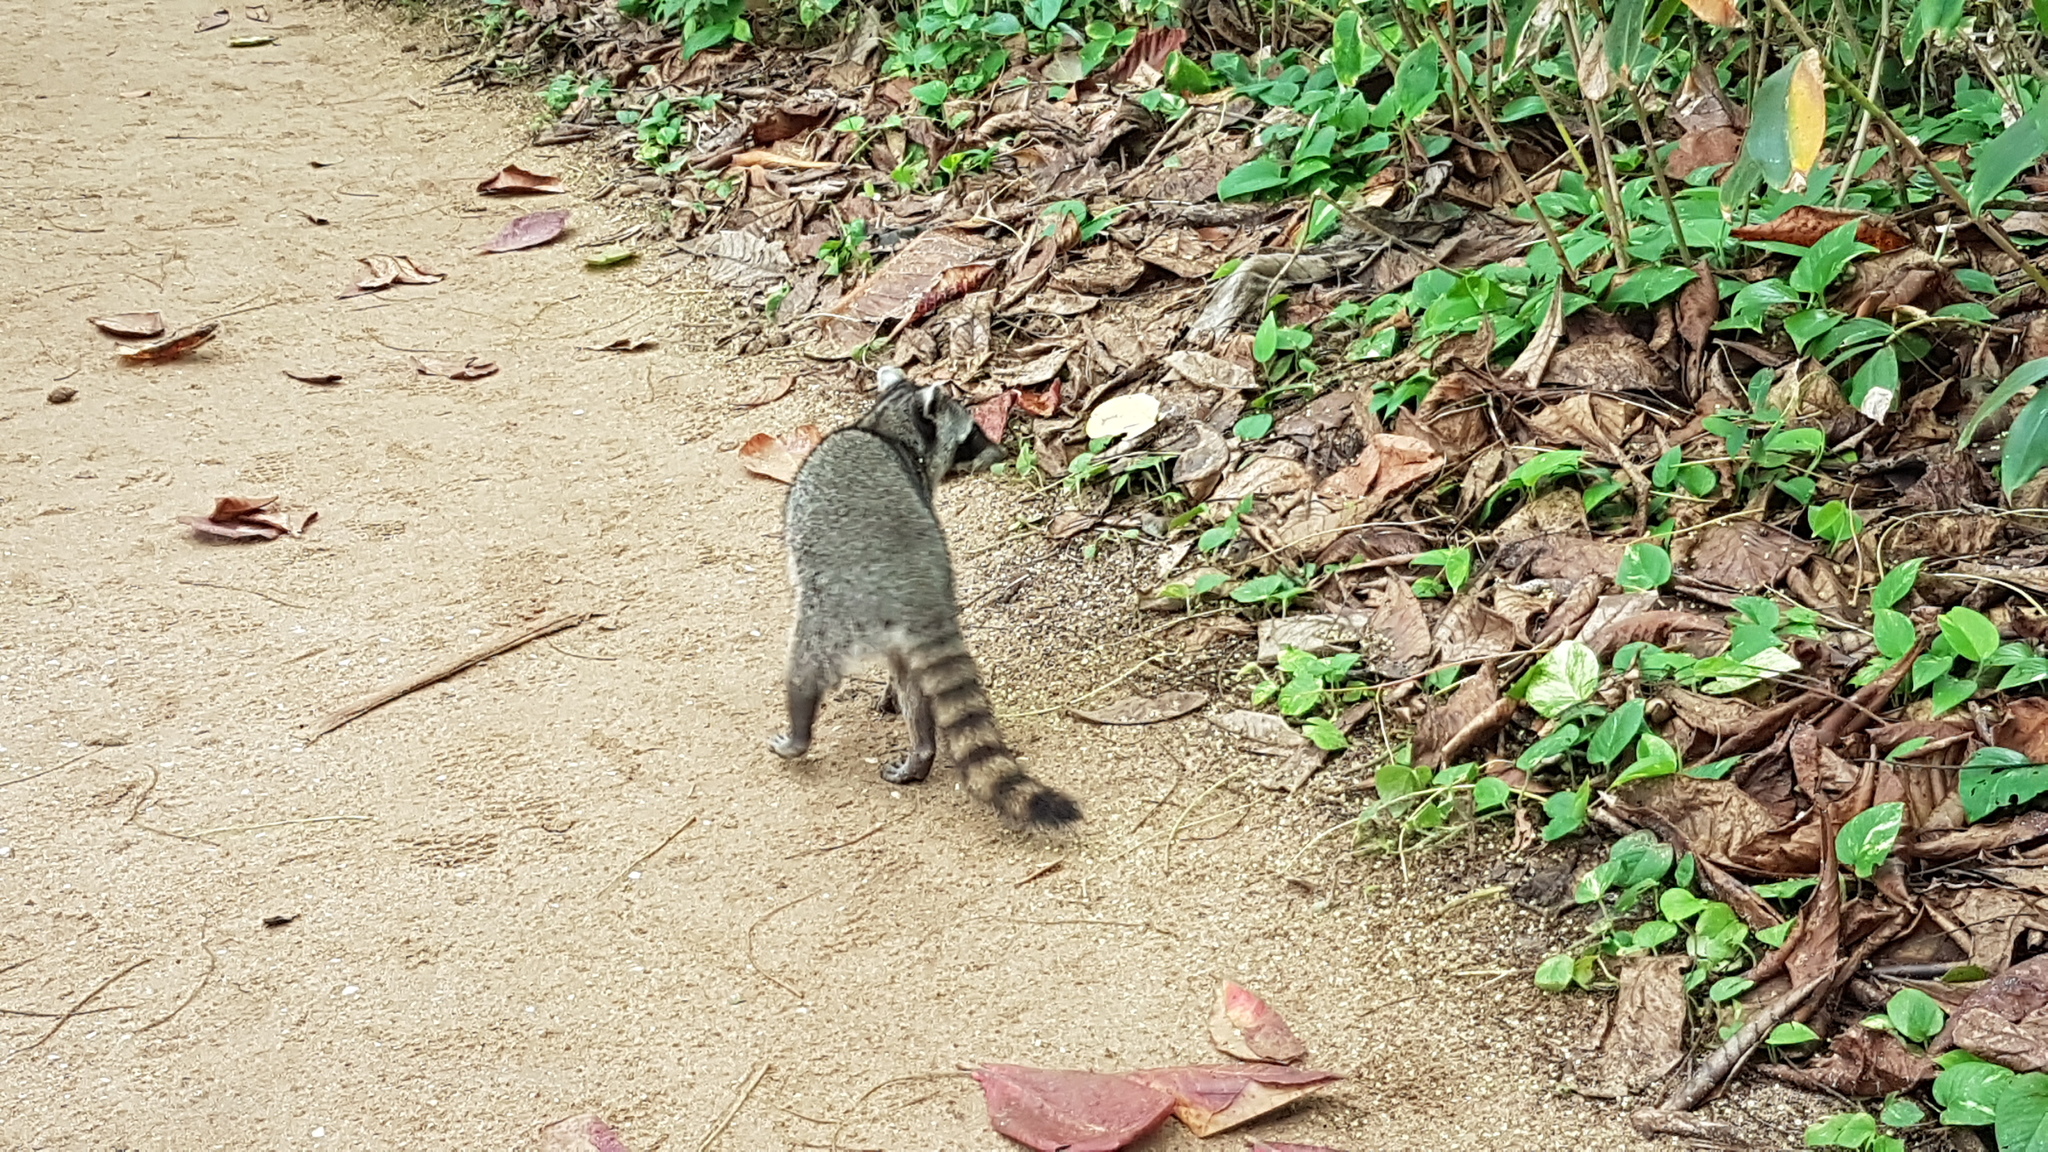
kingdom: Animalia
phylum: Chordata
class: Mammalia
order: Carnivora
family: Procyonidae
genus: Procyon
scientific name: Procyon lotor
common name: Raccoon
